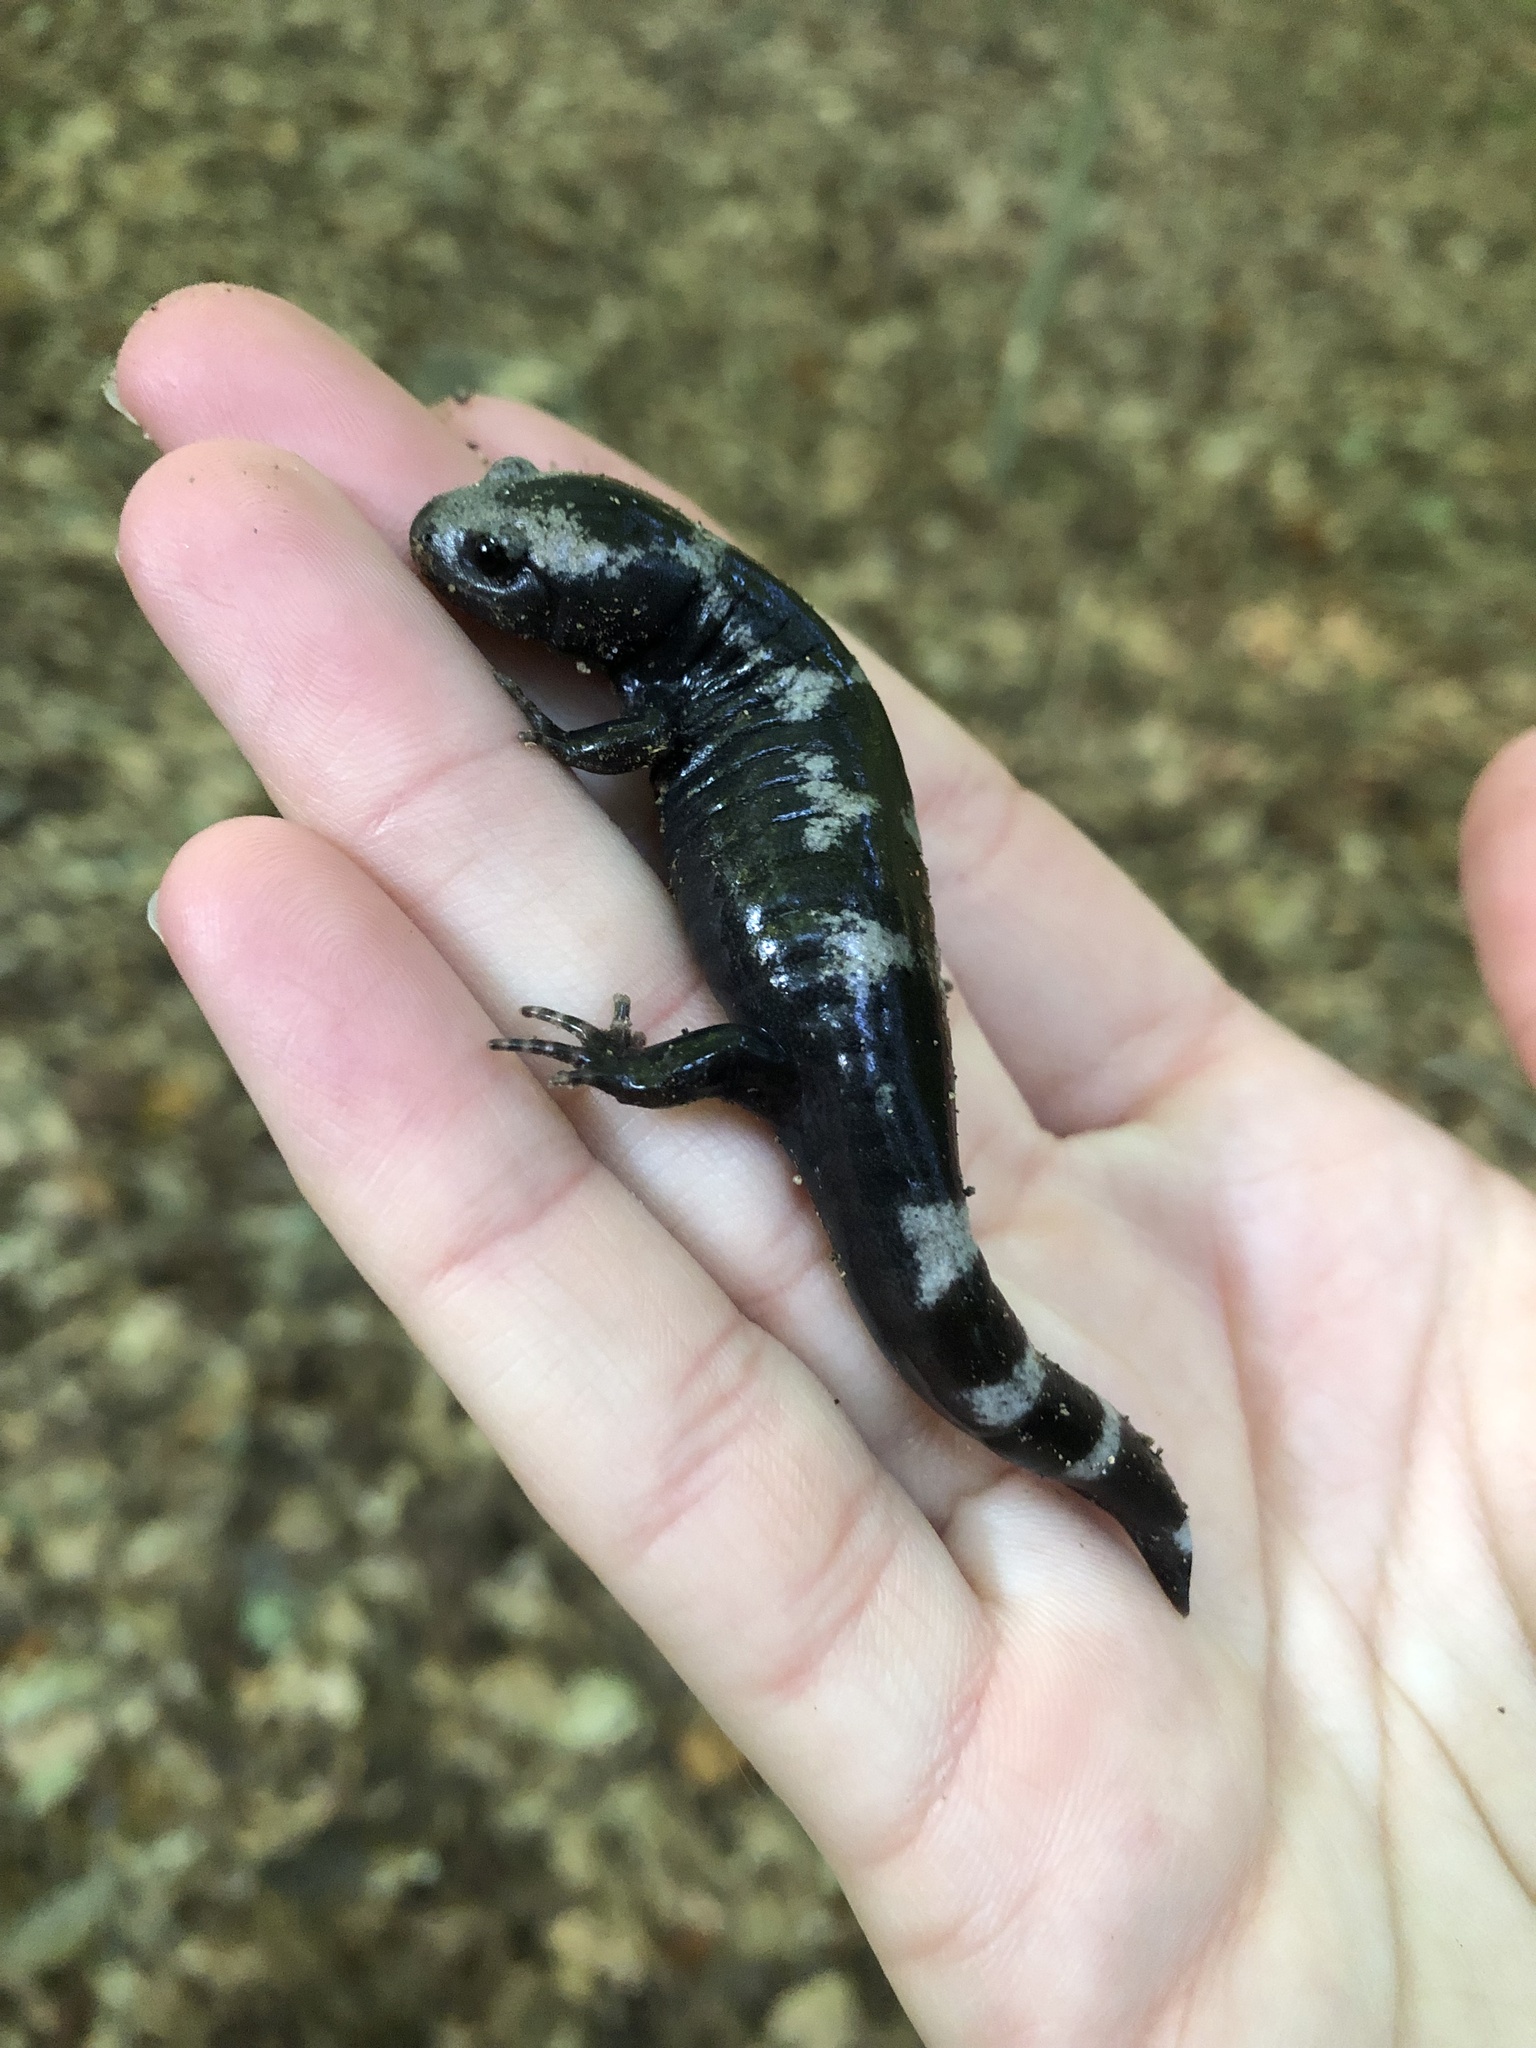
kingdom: Animalia
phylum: Chordata
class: Amphibia
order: Caudata
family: Ambystomatidae
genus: Ambystoma
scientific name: Ambystoma opacum
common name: Marbled salamander
